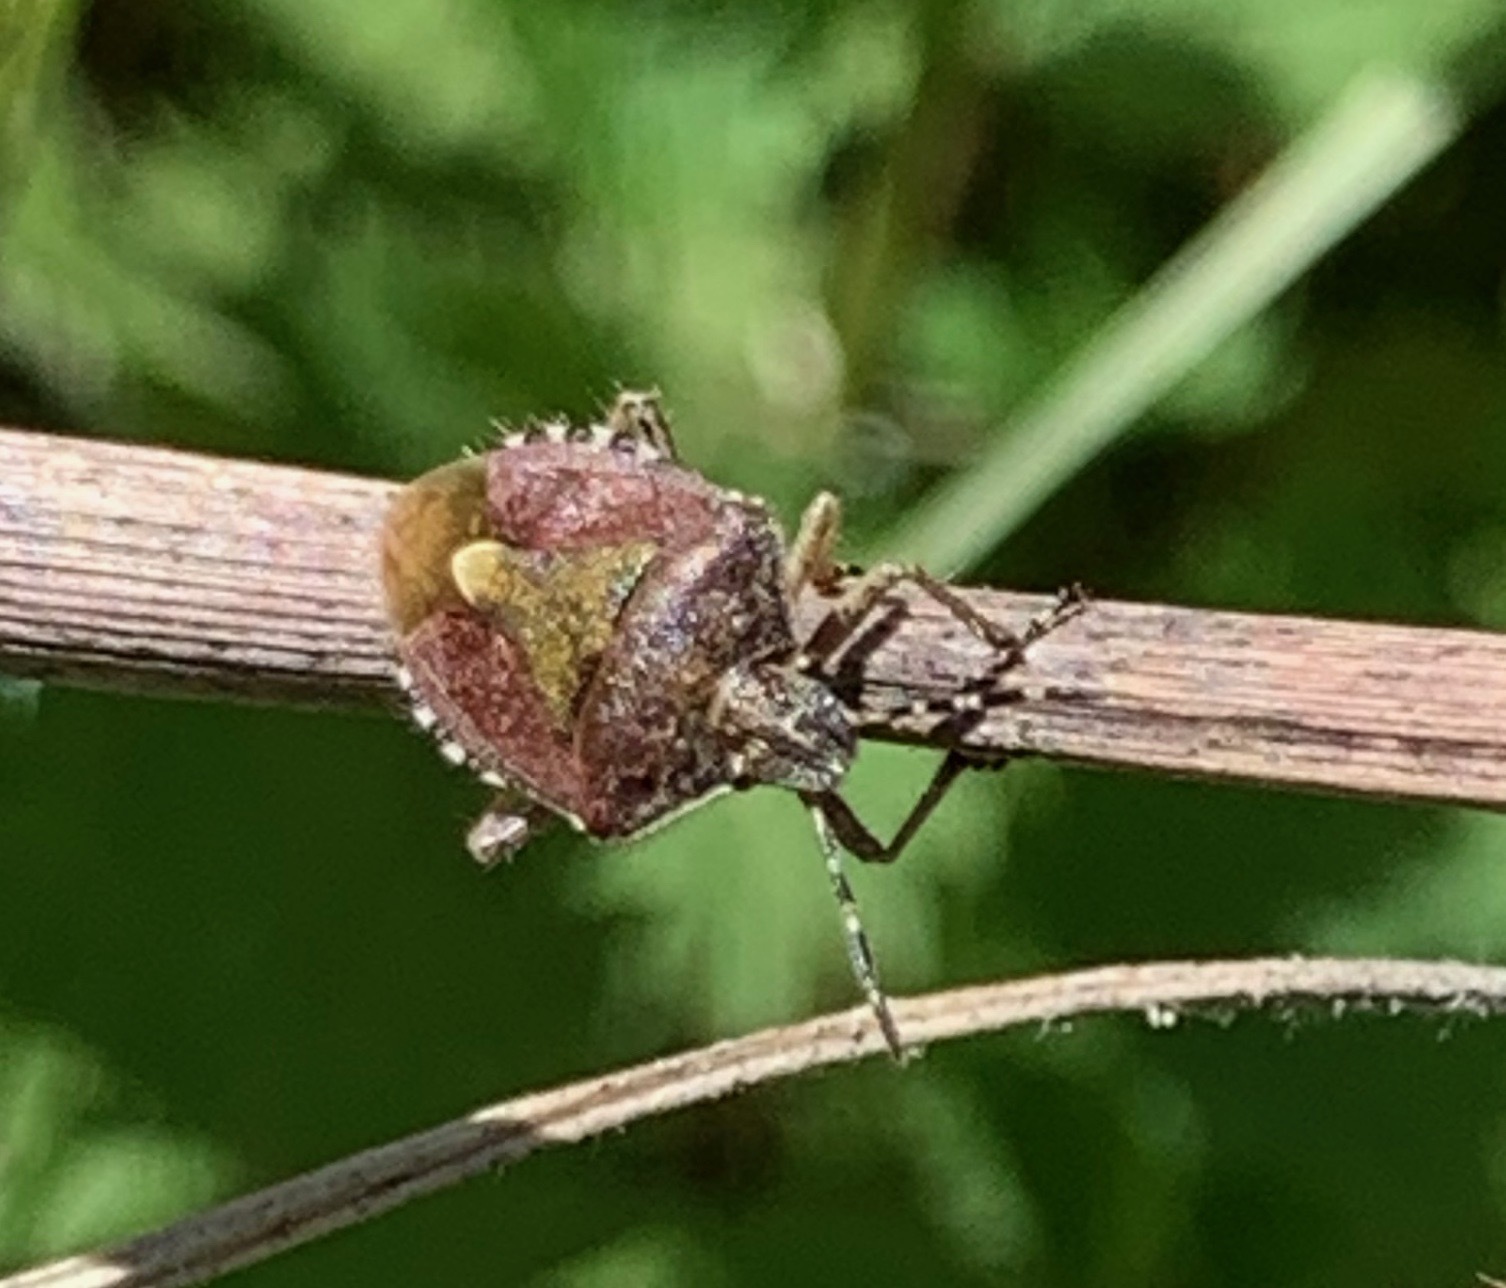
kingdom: Animalia
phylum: Arthropoda
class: Insecta
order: Hemiptera
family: Pentatomidae
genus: Dolycoris
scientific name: Dolycoris baccarum
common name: Sloe bug
